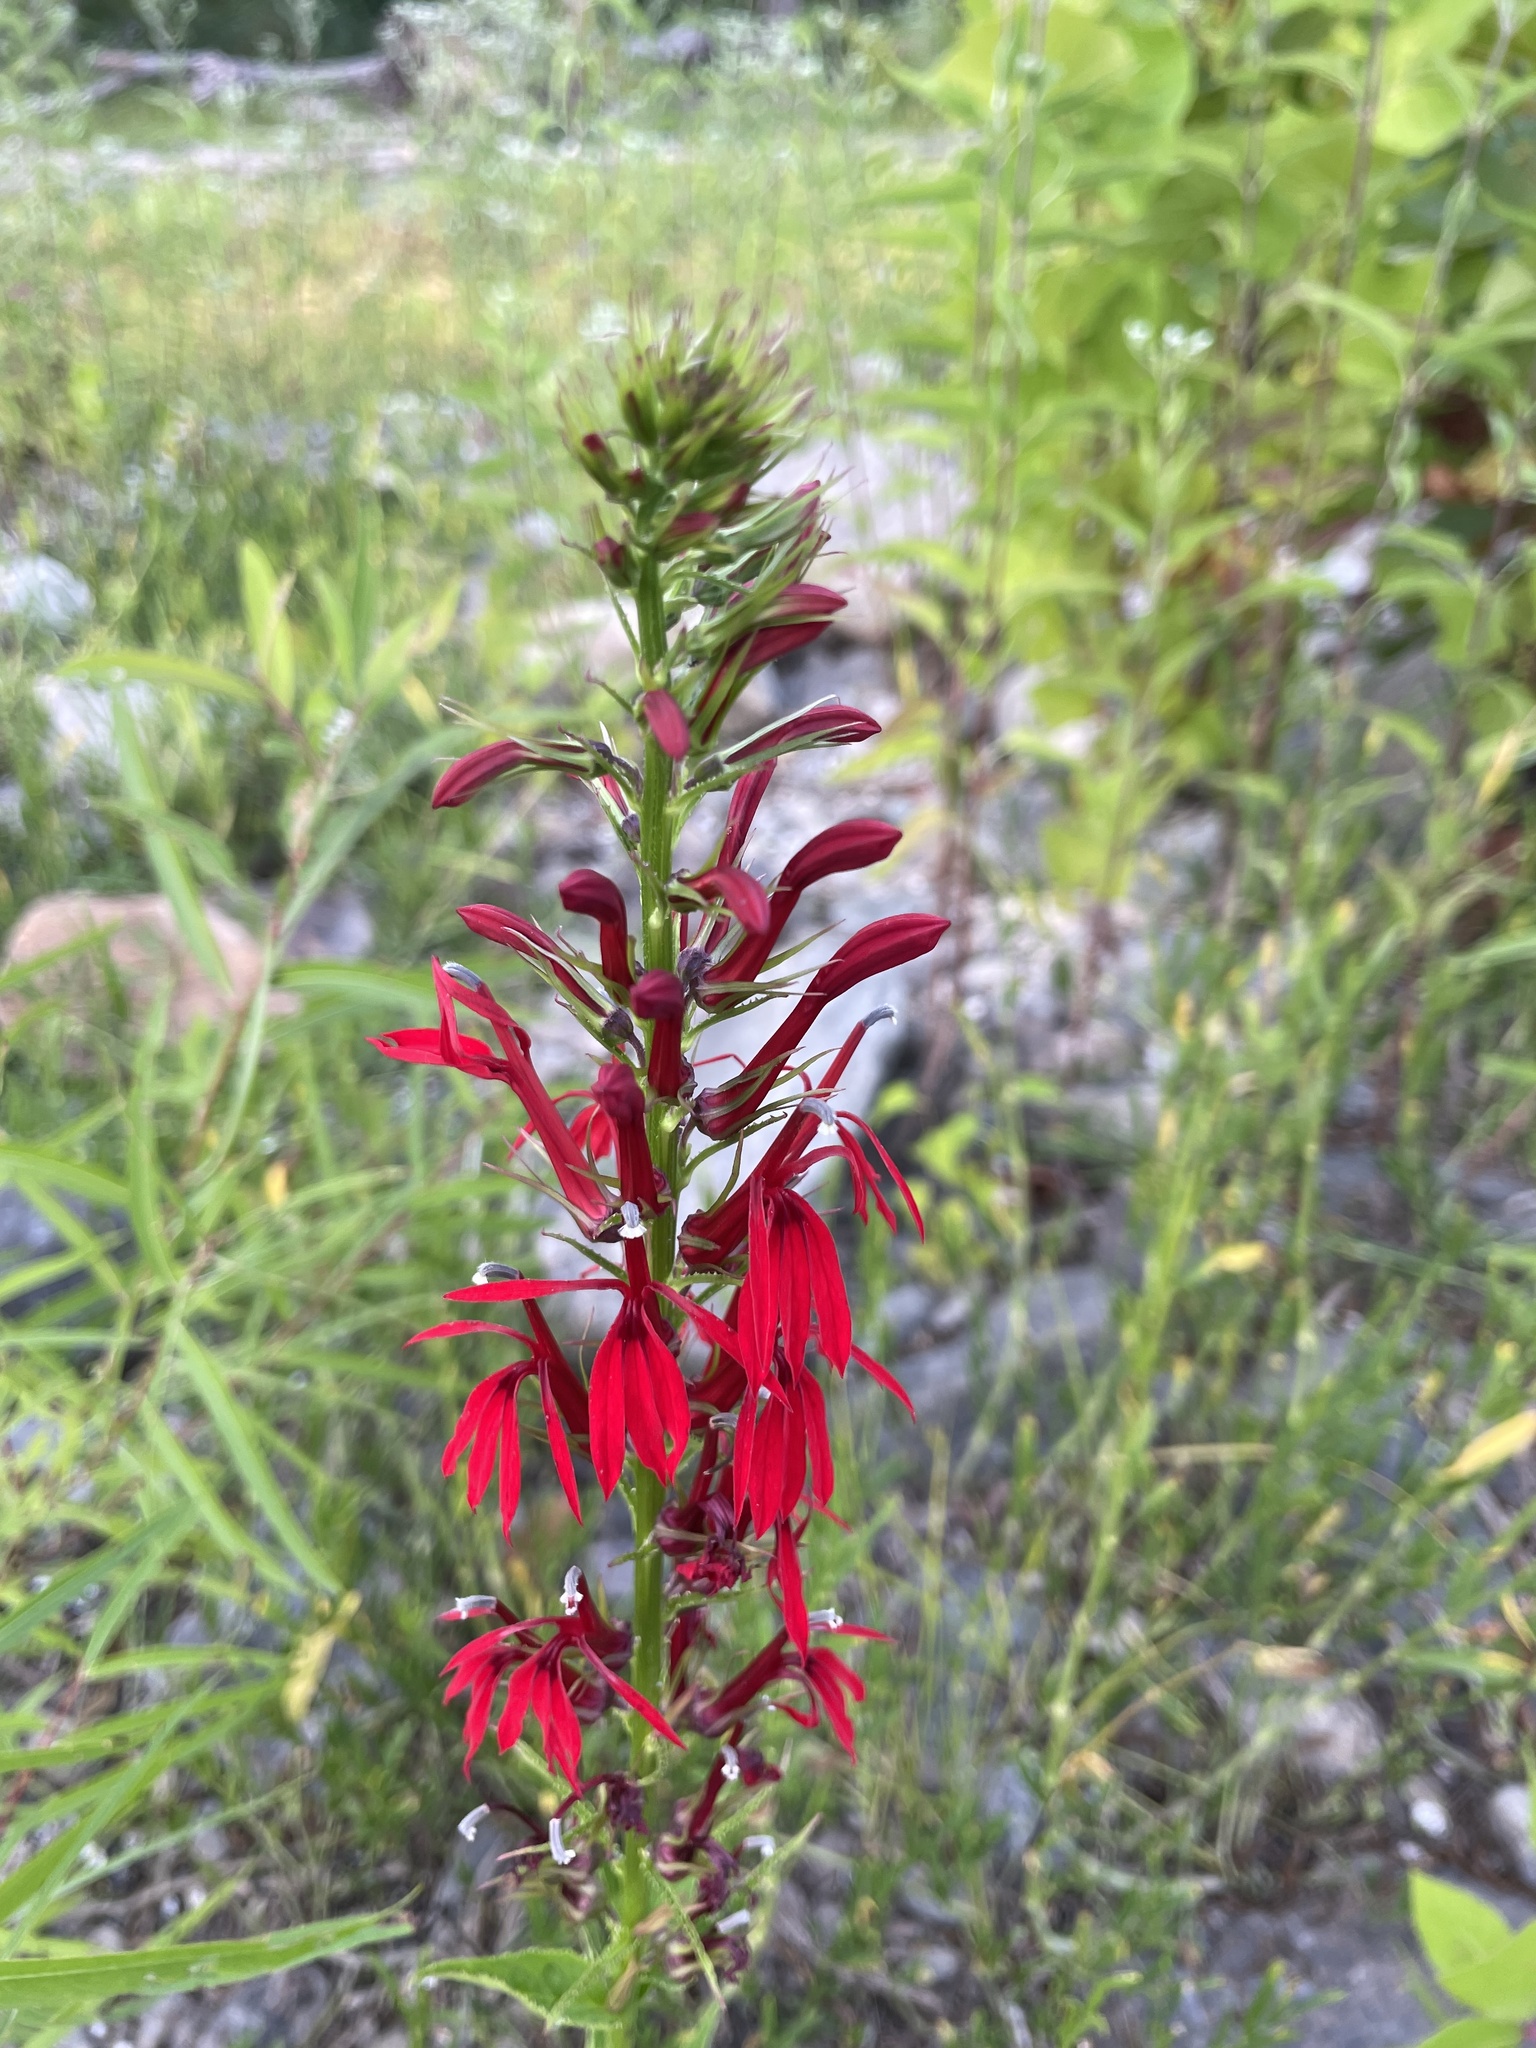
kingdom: Plantae
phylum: Tracheophyta
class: Magnoliopsida
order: Asterales
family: Campanulaceae
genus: Lobelia
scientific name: Lobelia cardinalis
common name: Cardinal flower
